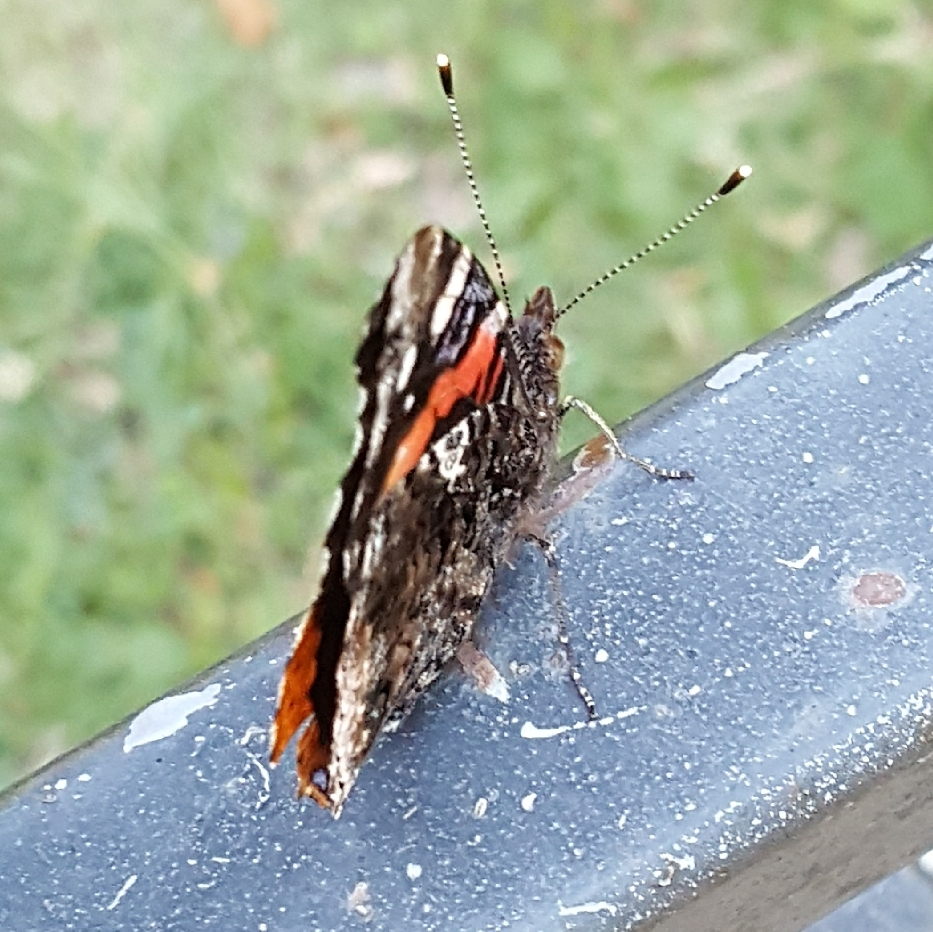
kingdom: Animalia
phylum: Arthropoda
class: Insecta
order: Lepidoptera
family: Nymphalidae
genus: Vanessa
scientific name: Vanessa atalanta
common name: Red admiral
